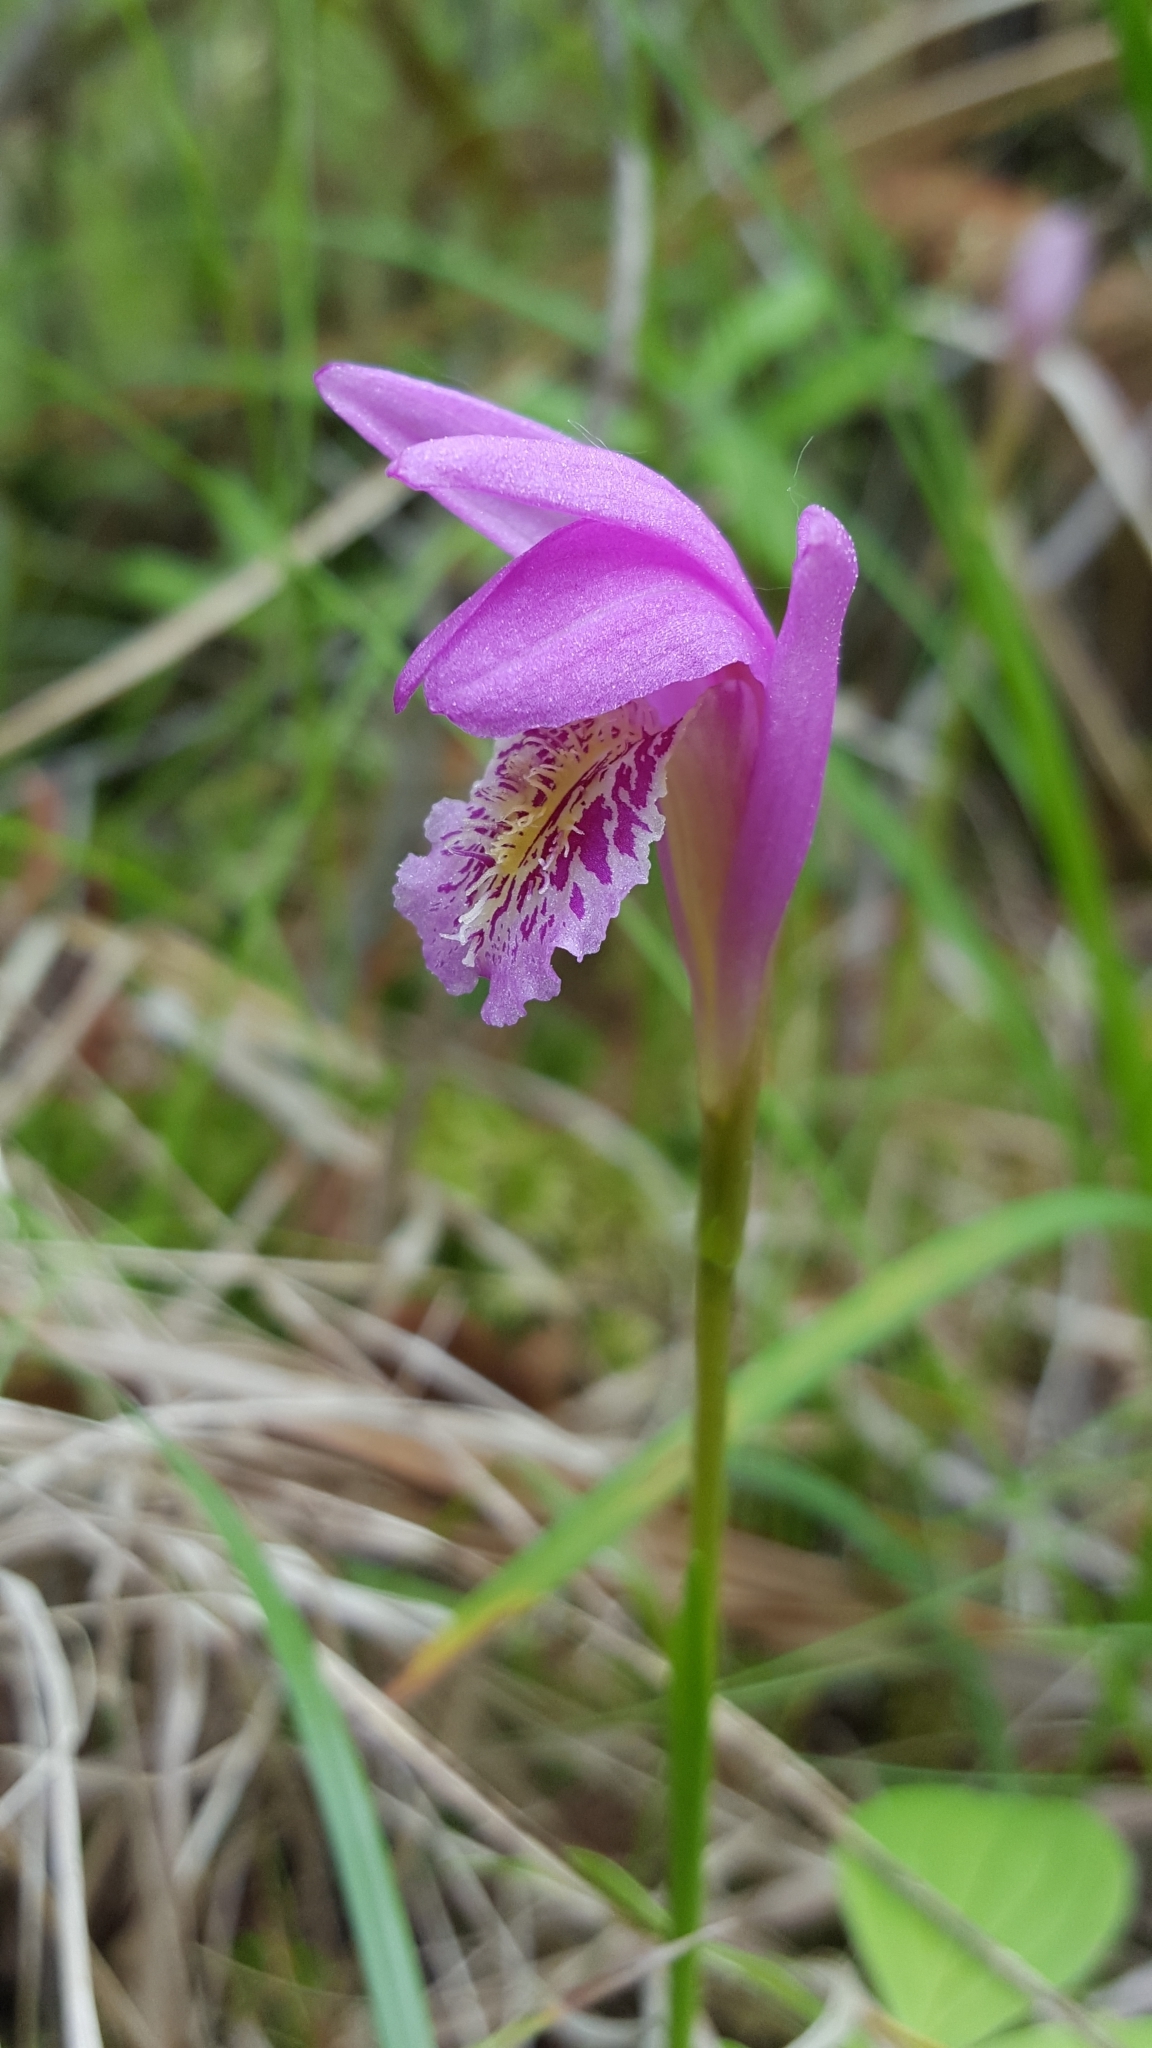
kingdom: Plantae
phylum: Tracheophyta
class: Liliopsida
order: Asparagales
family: Orchidaceae
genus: Arethusa
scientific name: Arethusa bulbosa
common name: Arethusa
